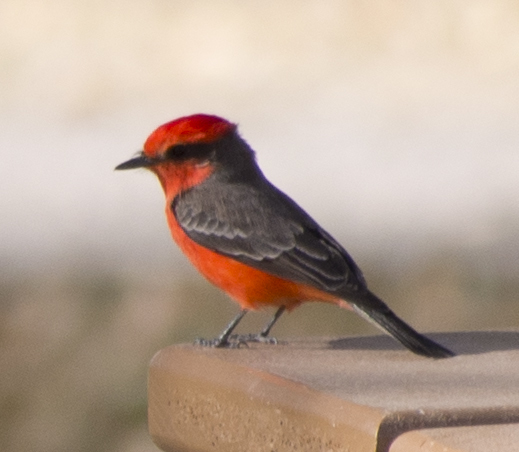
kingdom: Animalia
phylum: Chordata
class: Aves
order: Passeriformes
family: Tyrannidae
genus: Pyrocephalus
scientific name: Pyrocephalus rubinus
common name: Vermilion flycatcher
